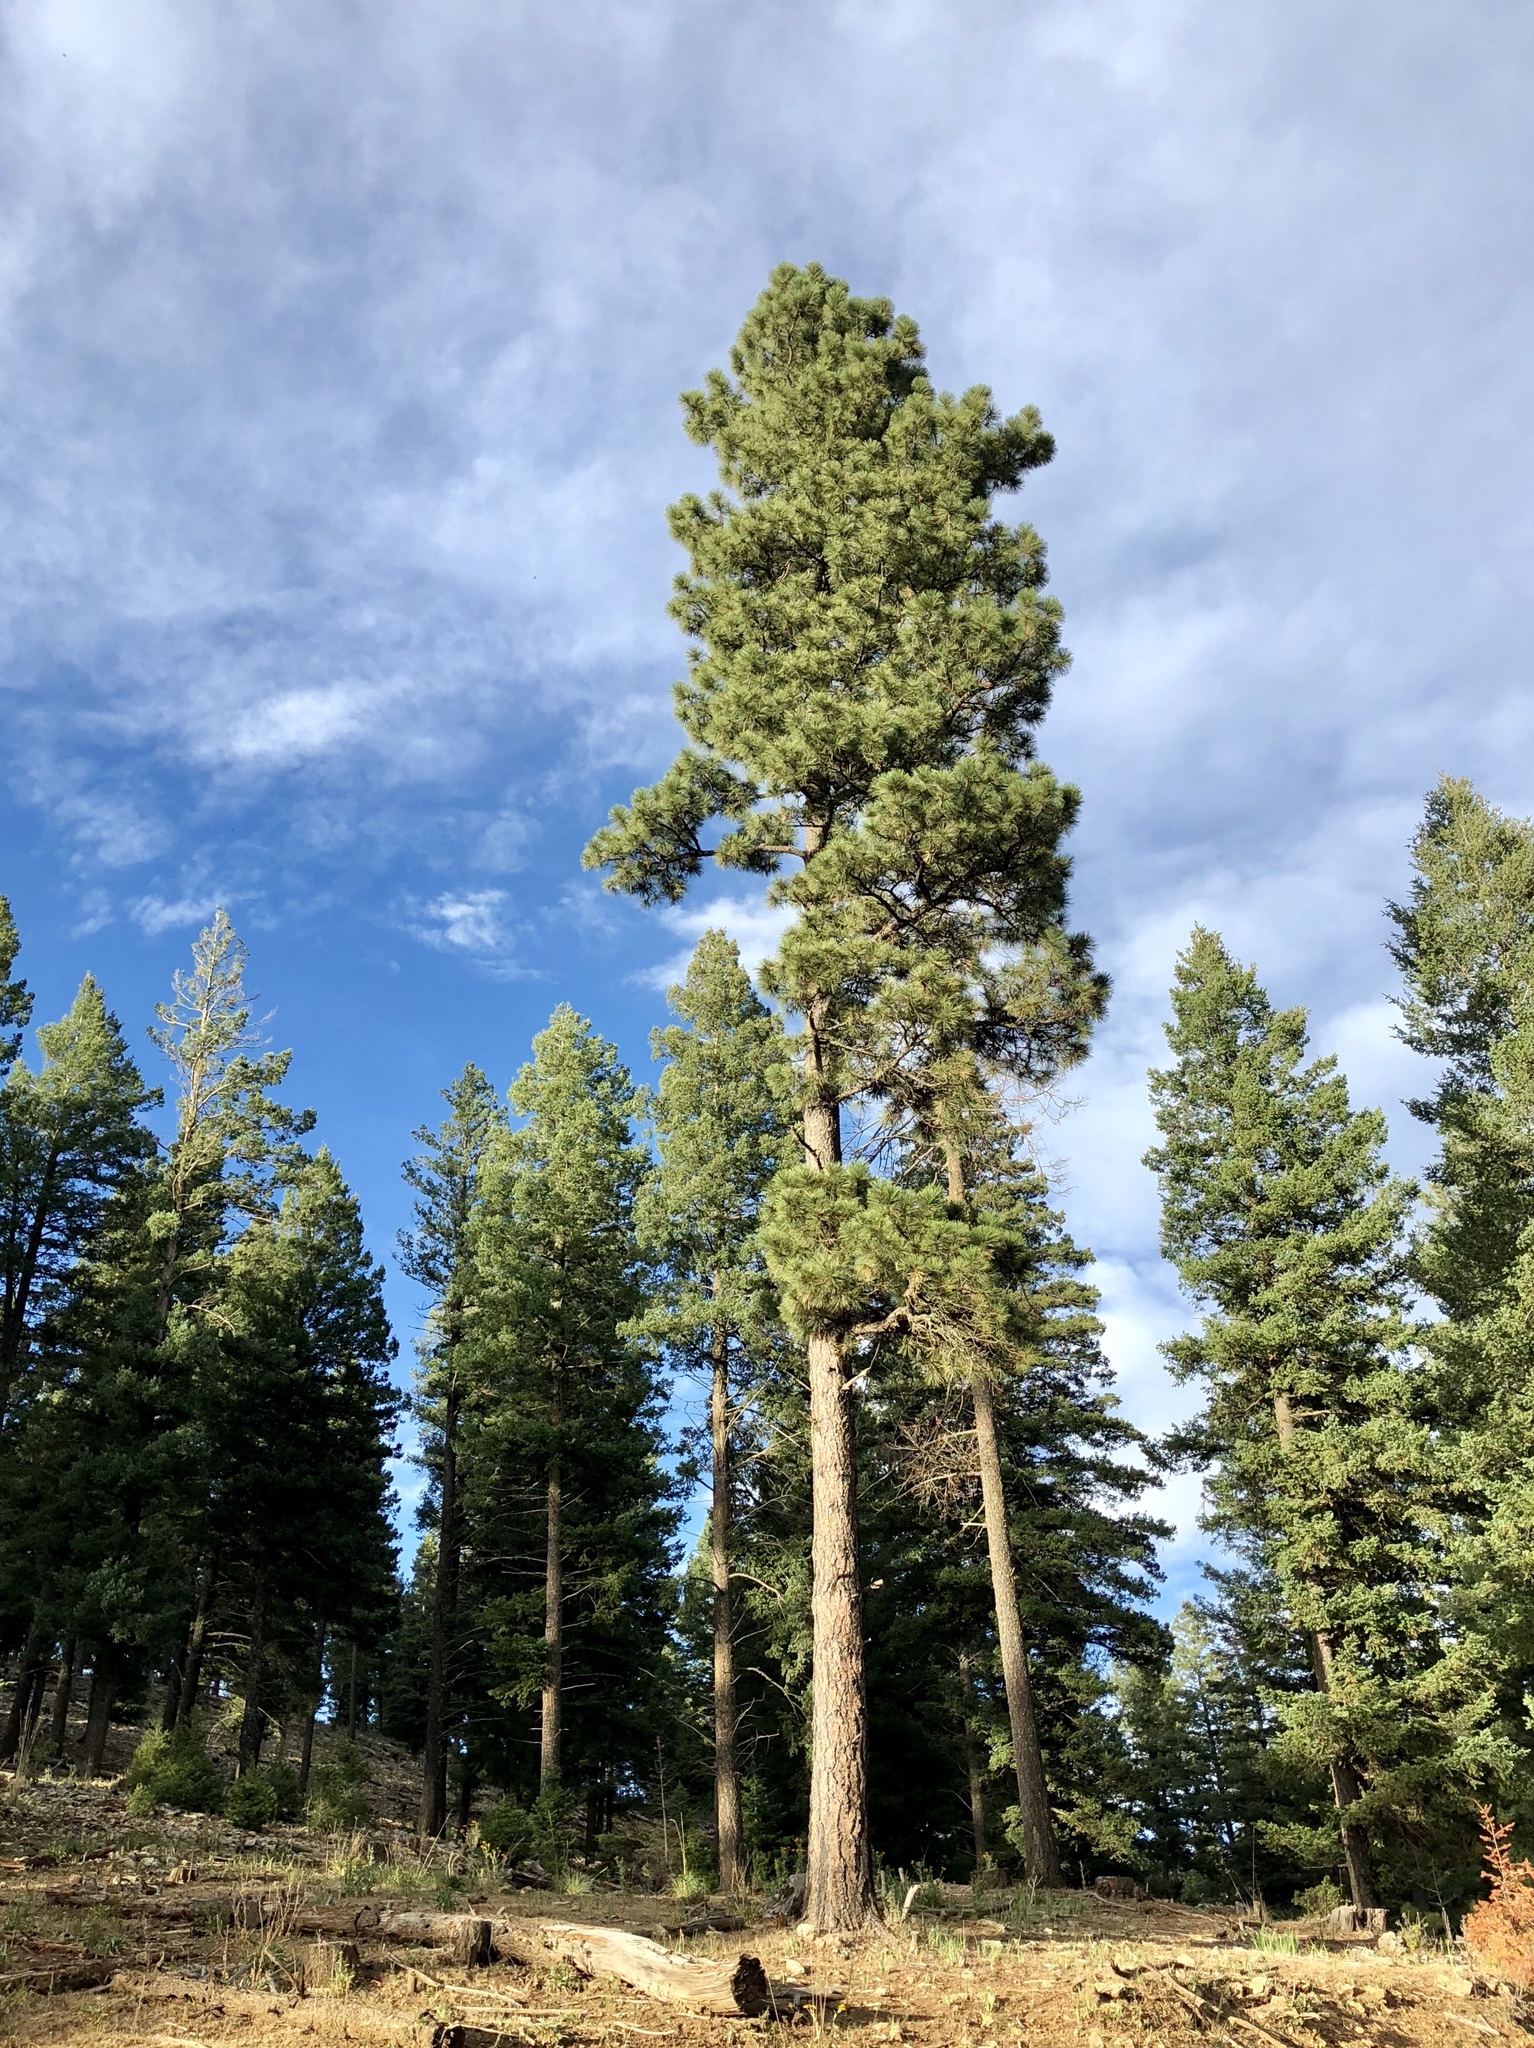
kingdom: Plantae
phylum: Tracheophyta
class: Pinopsida
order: Pinales
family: Pinaceae
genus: Pinus
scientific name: Pinus ponderosa
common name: Western yellow-pine
